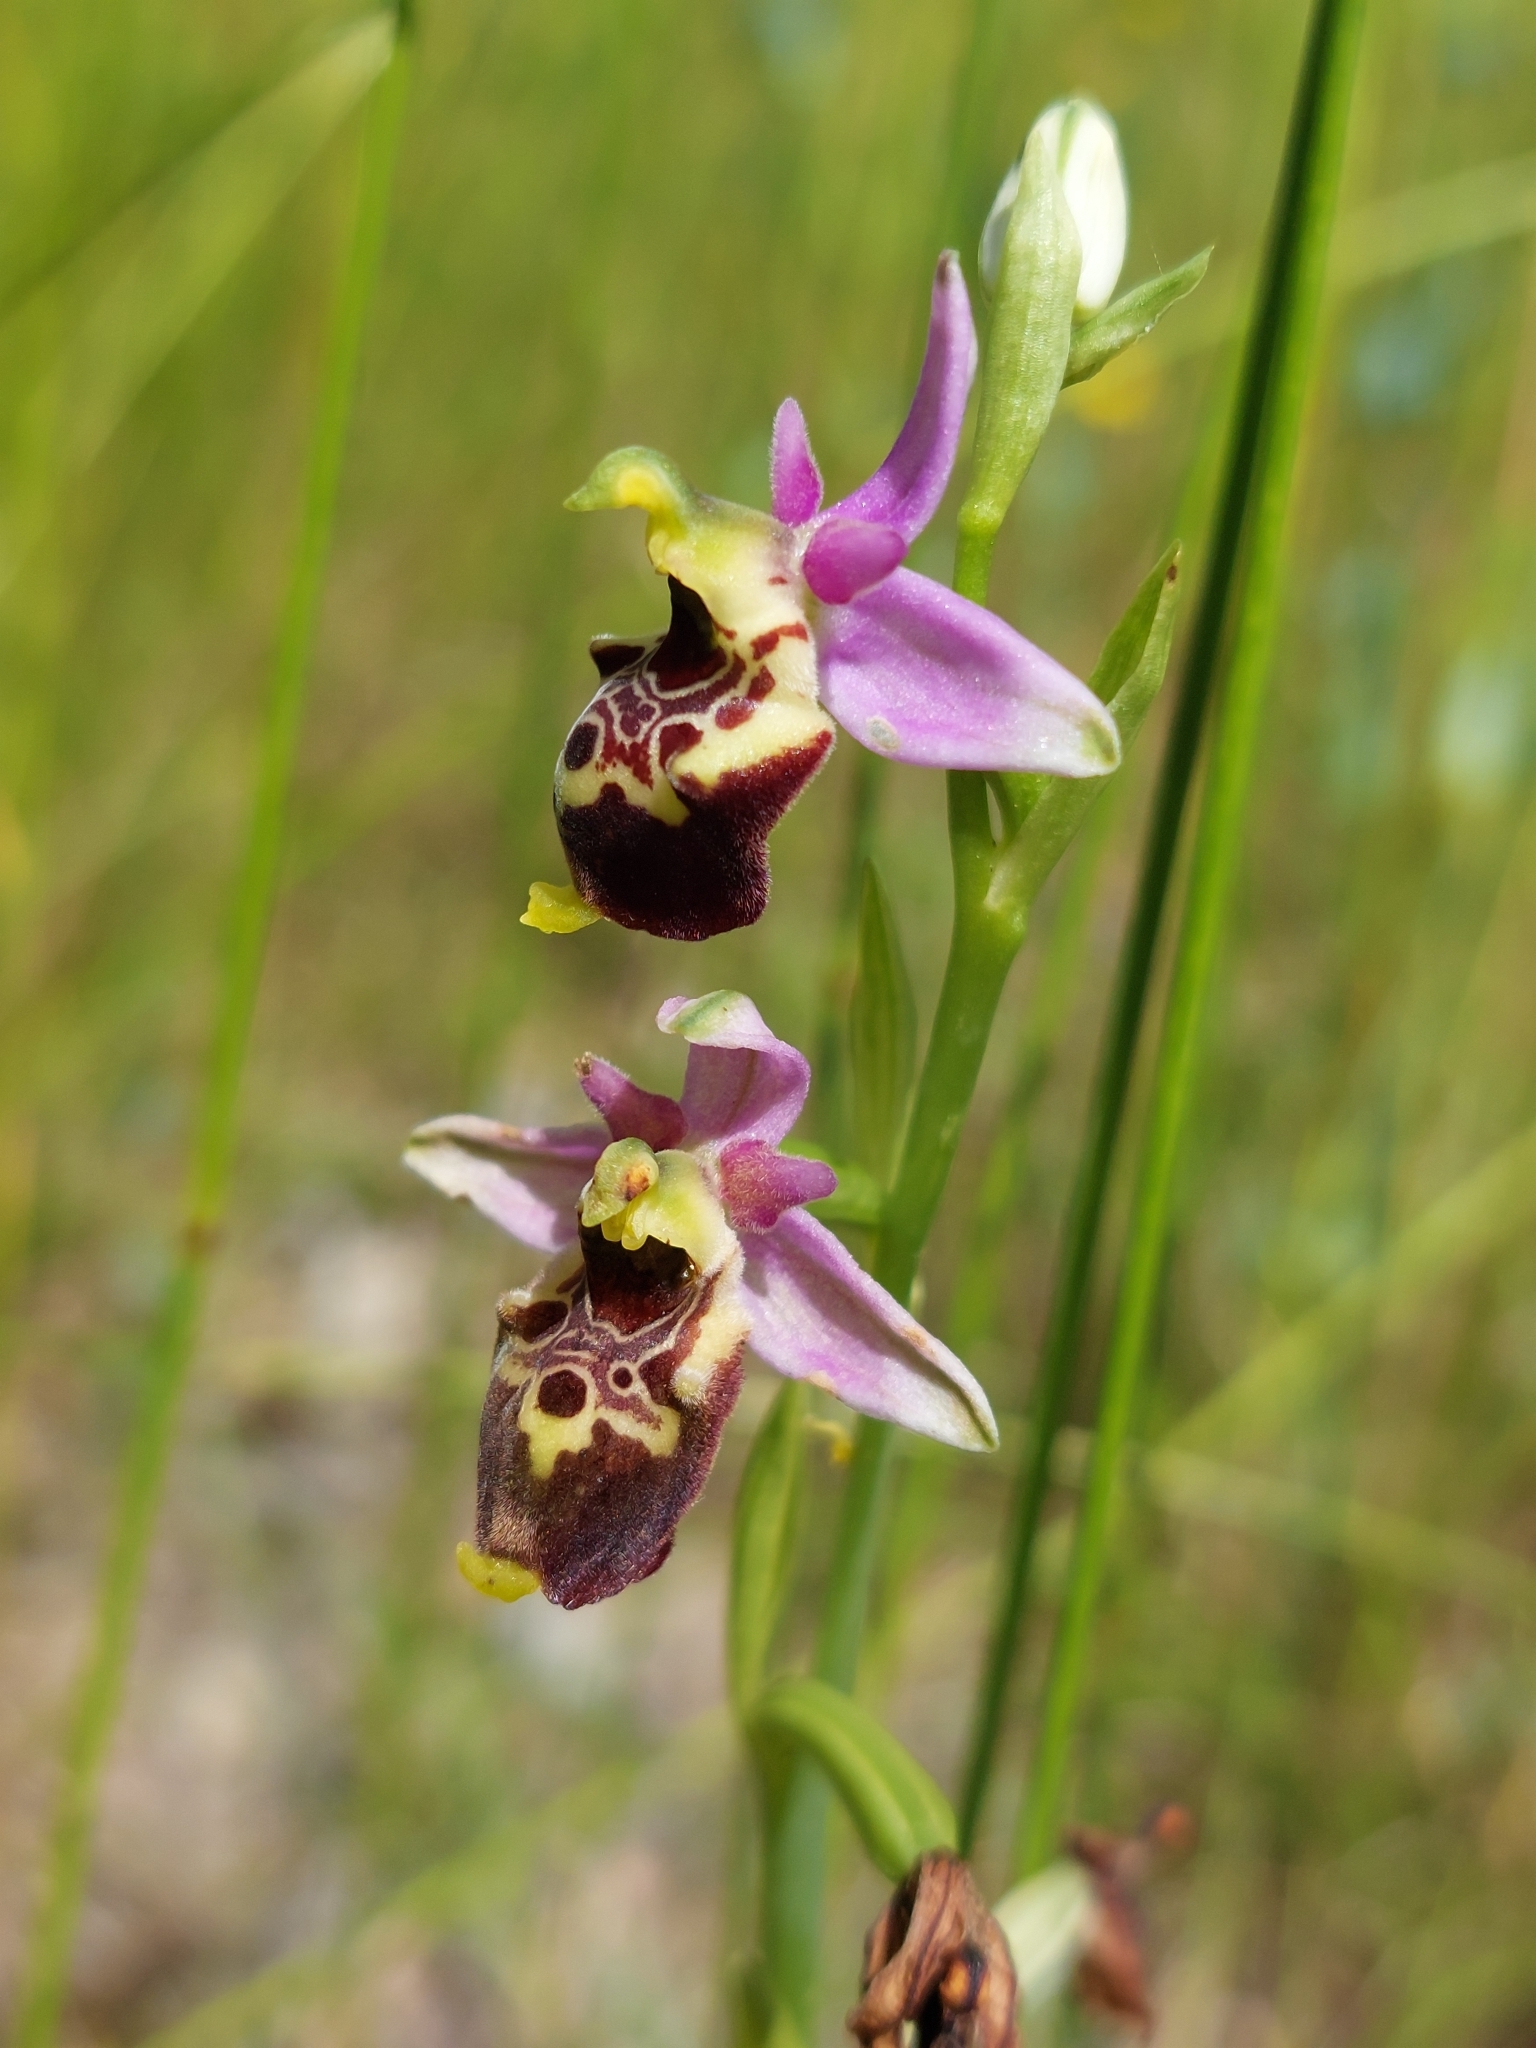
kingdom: Plantae
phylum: Tracheophyta
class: Liliopsida
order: Asparagales
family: Orchidaceae
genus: Ophrys
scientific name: Ophrys holosericea
